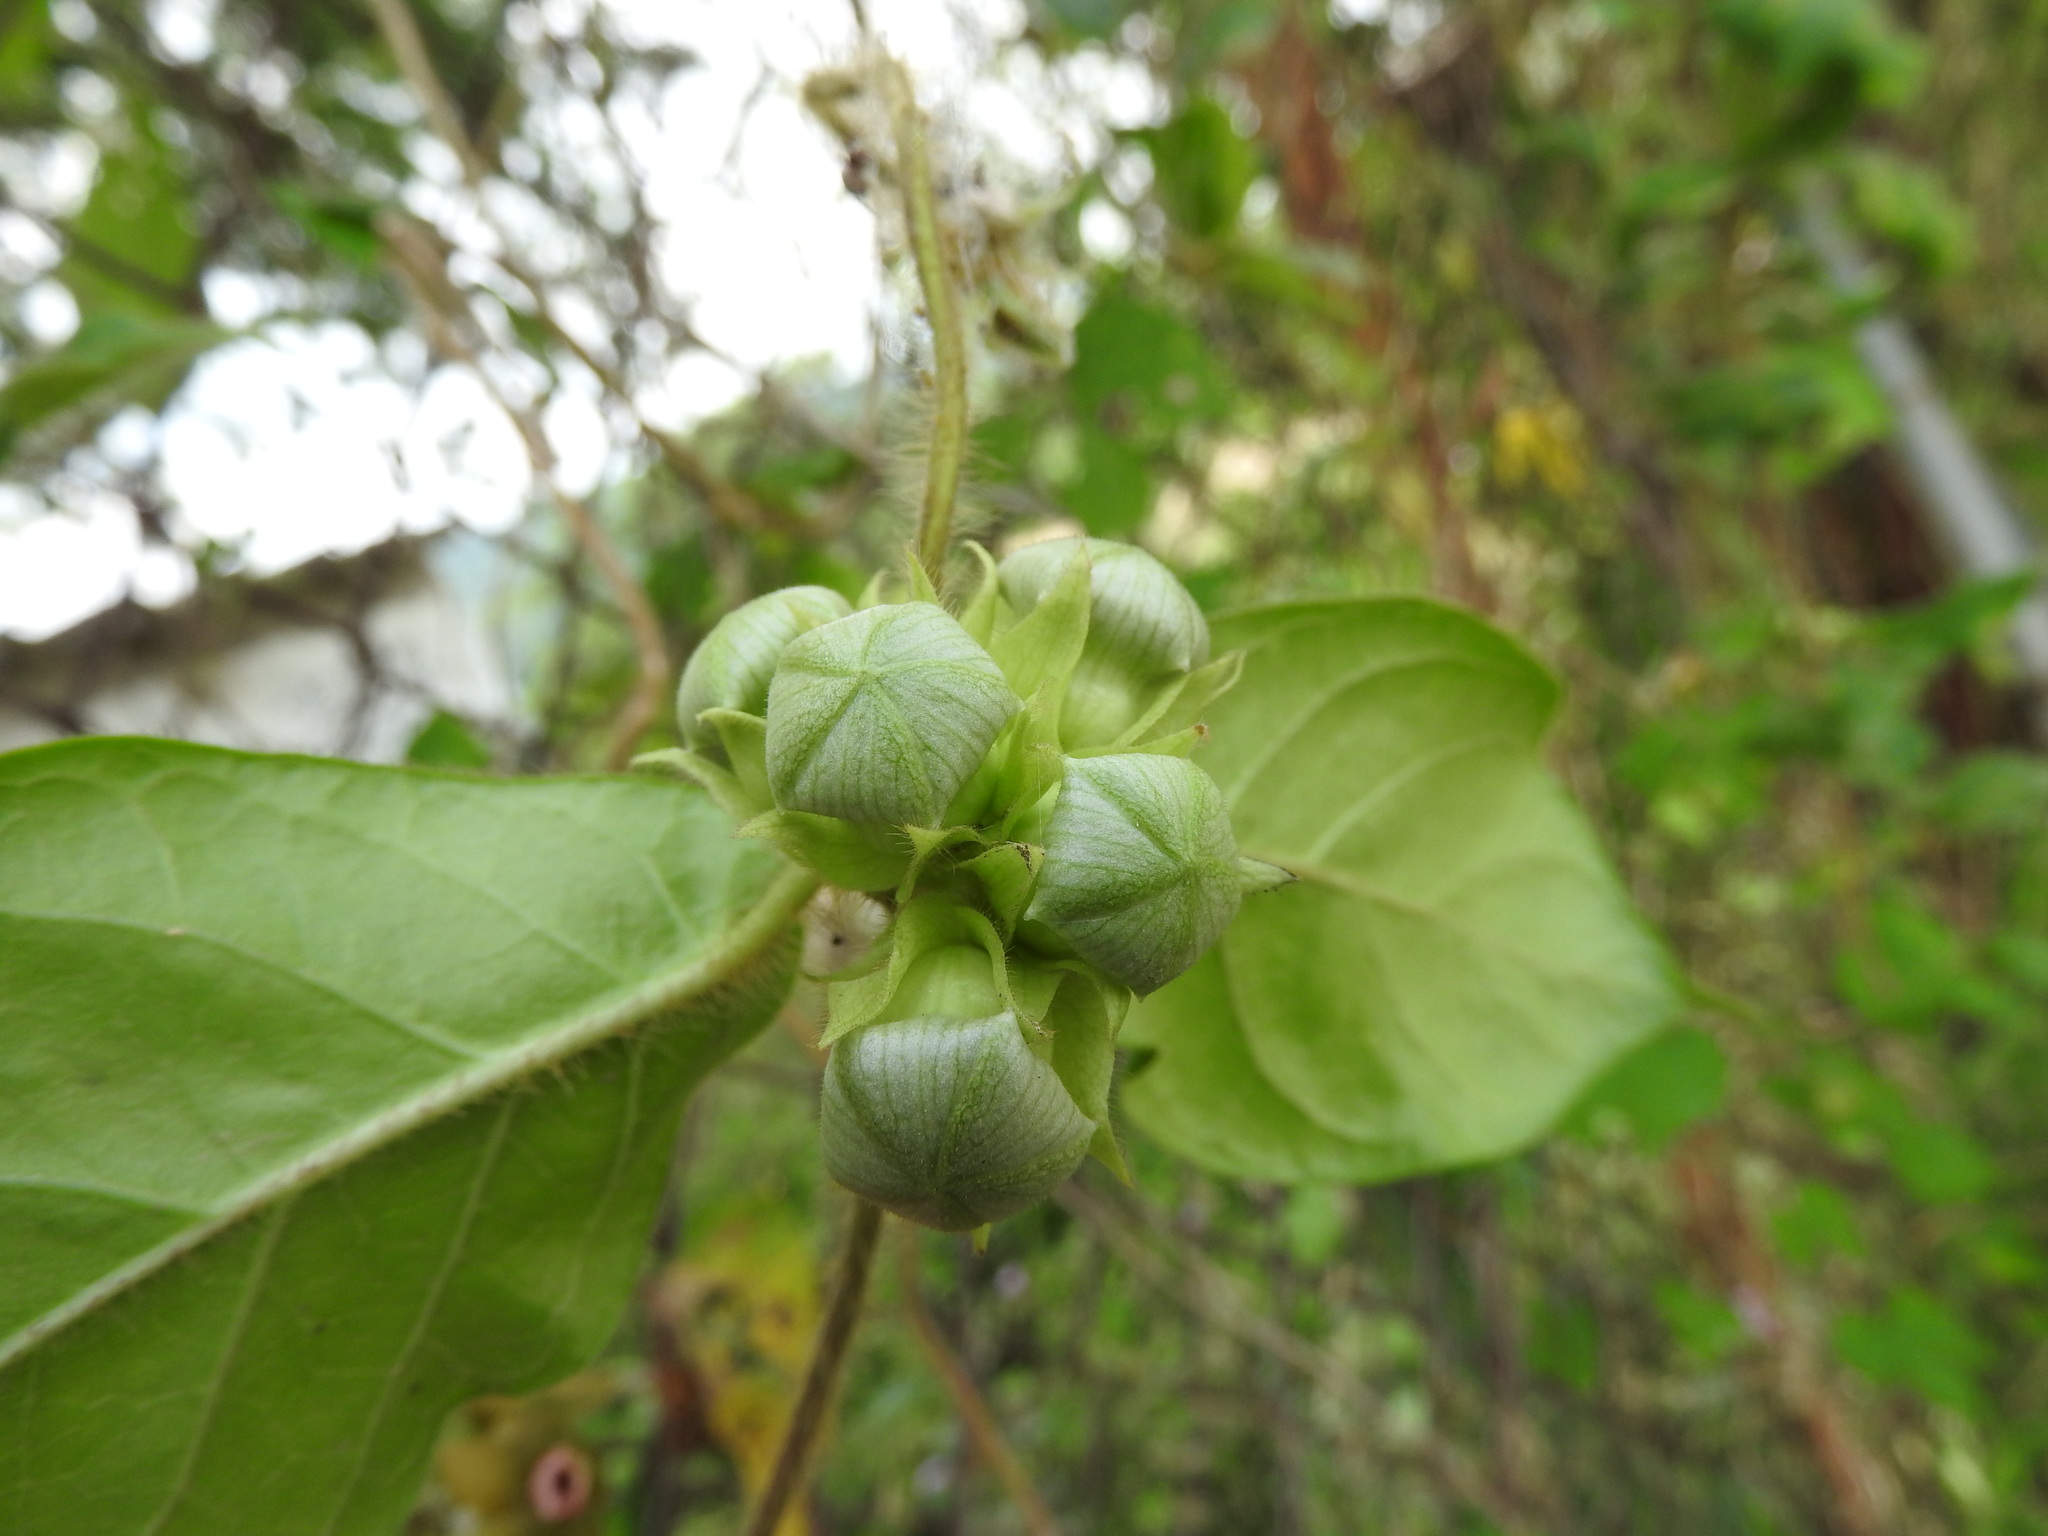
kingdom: Plantae
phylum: Tracheophyta
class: Magnoliopsida
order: Gentianales
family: Apocynaceae
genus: Macroscepis
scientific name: Macroscepis diademata
